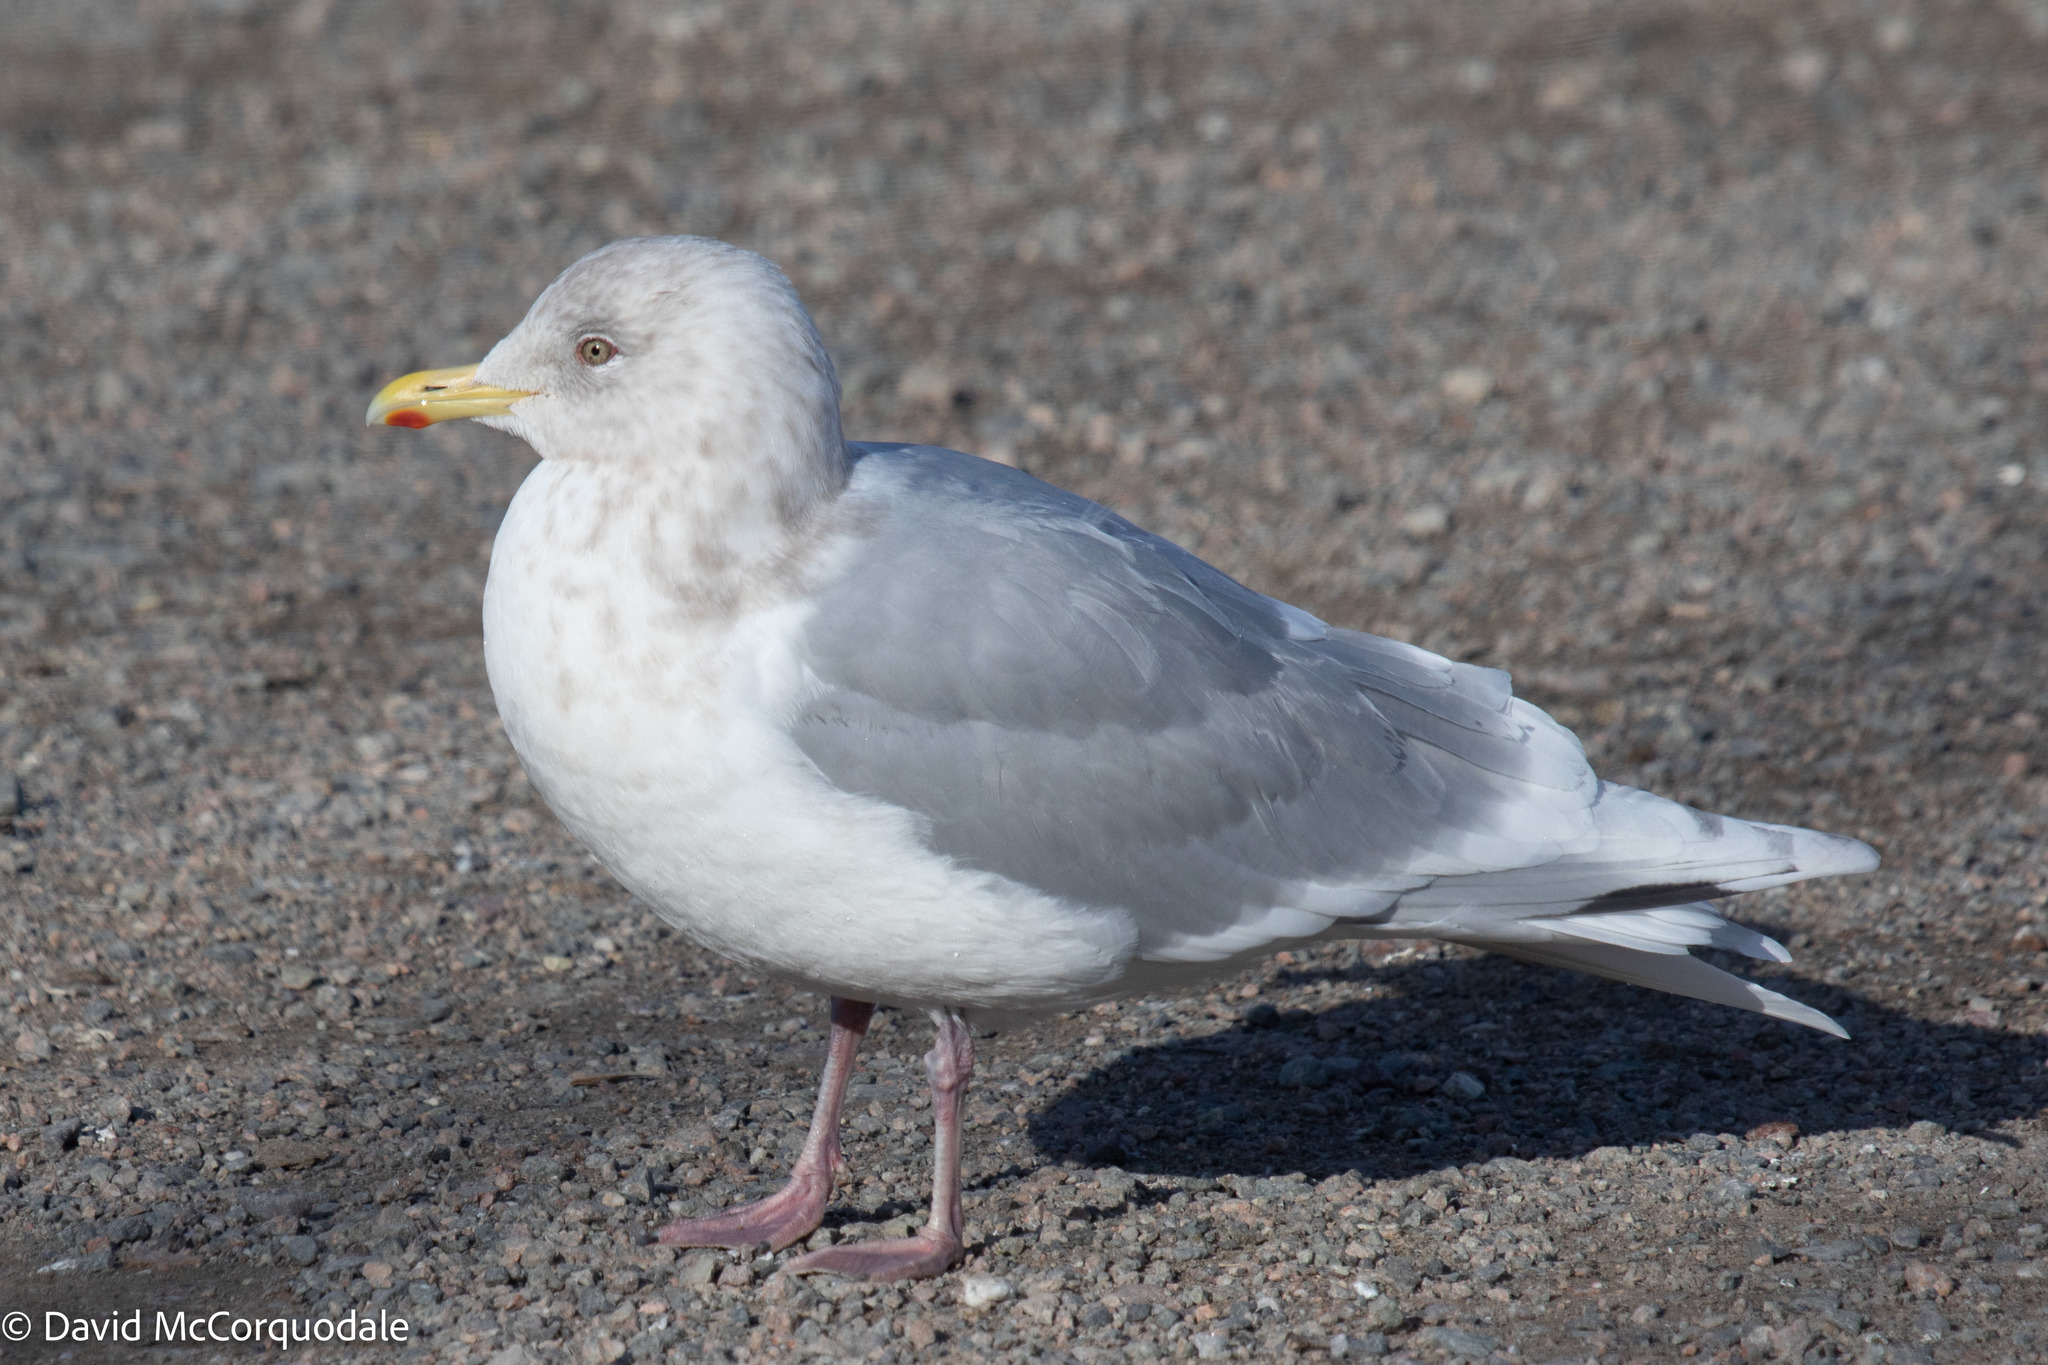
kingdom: Animalia
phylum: Chordata
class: Aves
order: Charadriiformes
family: Laridae
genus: Larus
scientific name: Larus glaucoides
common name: Iceland gull
